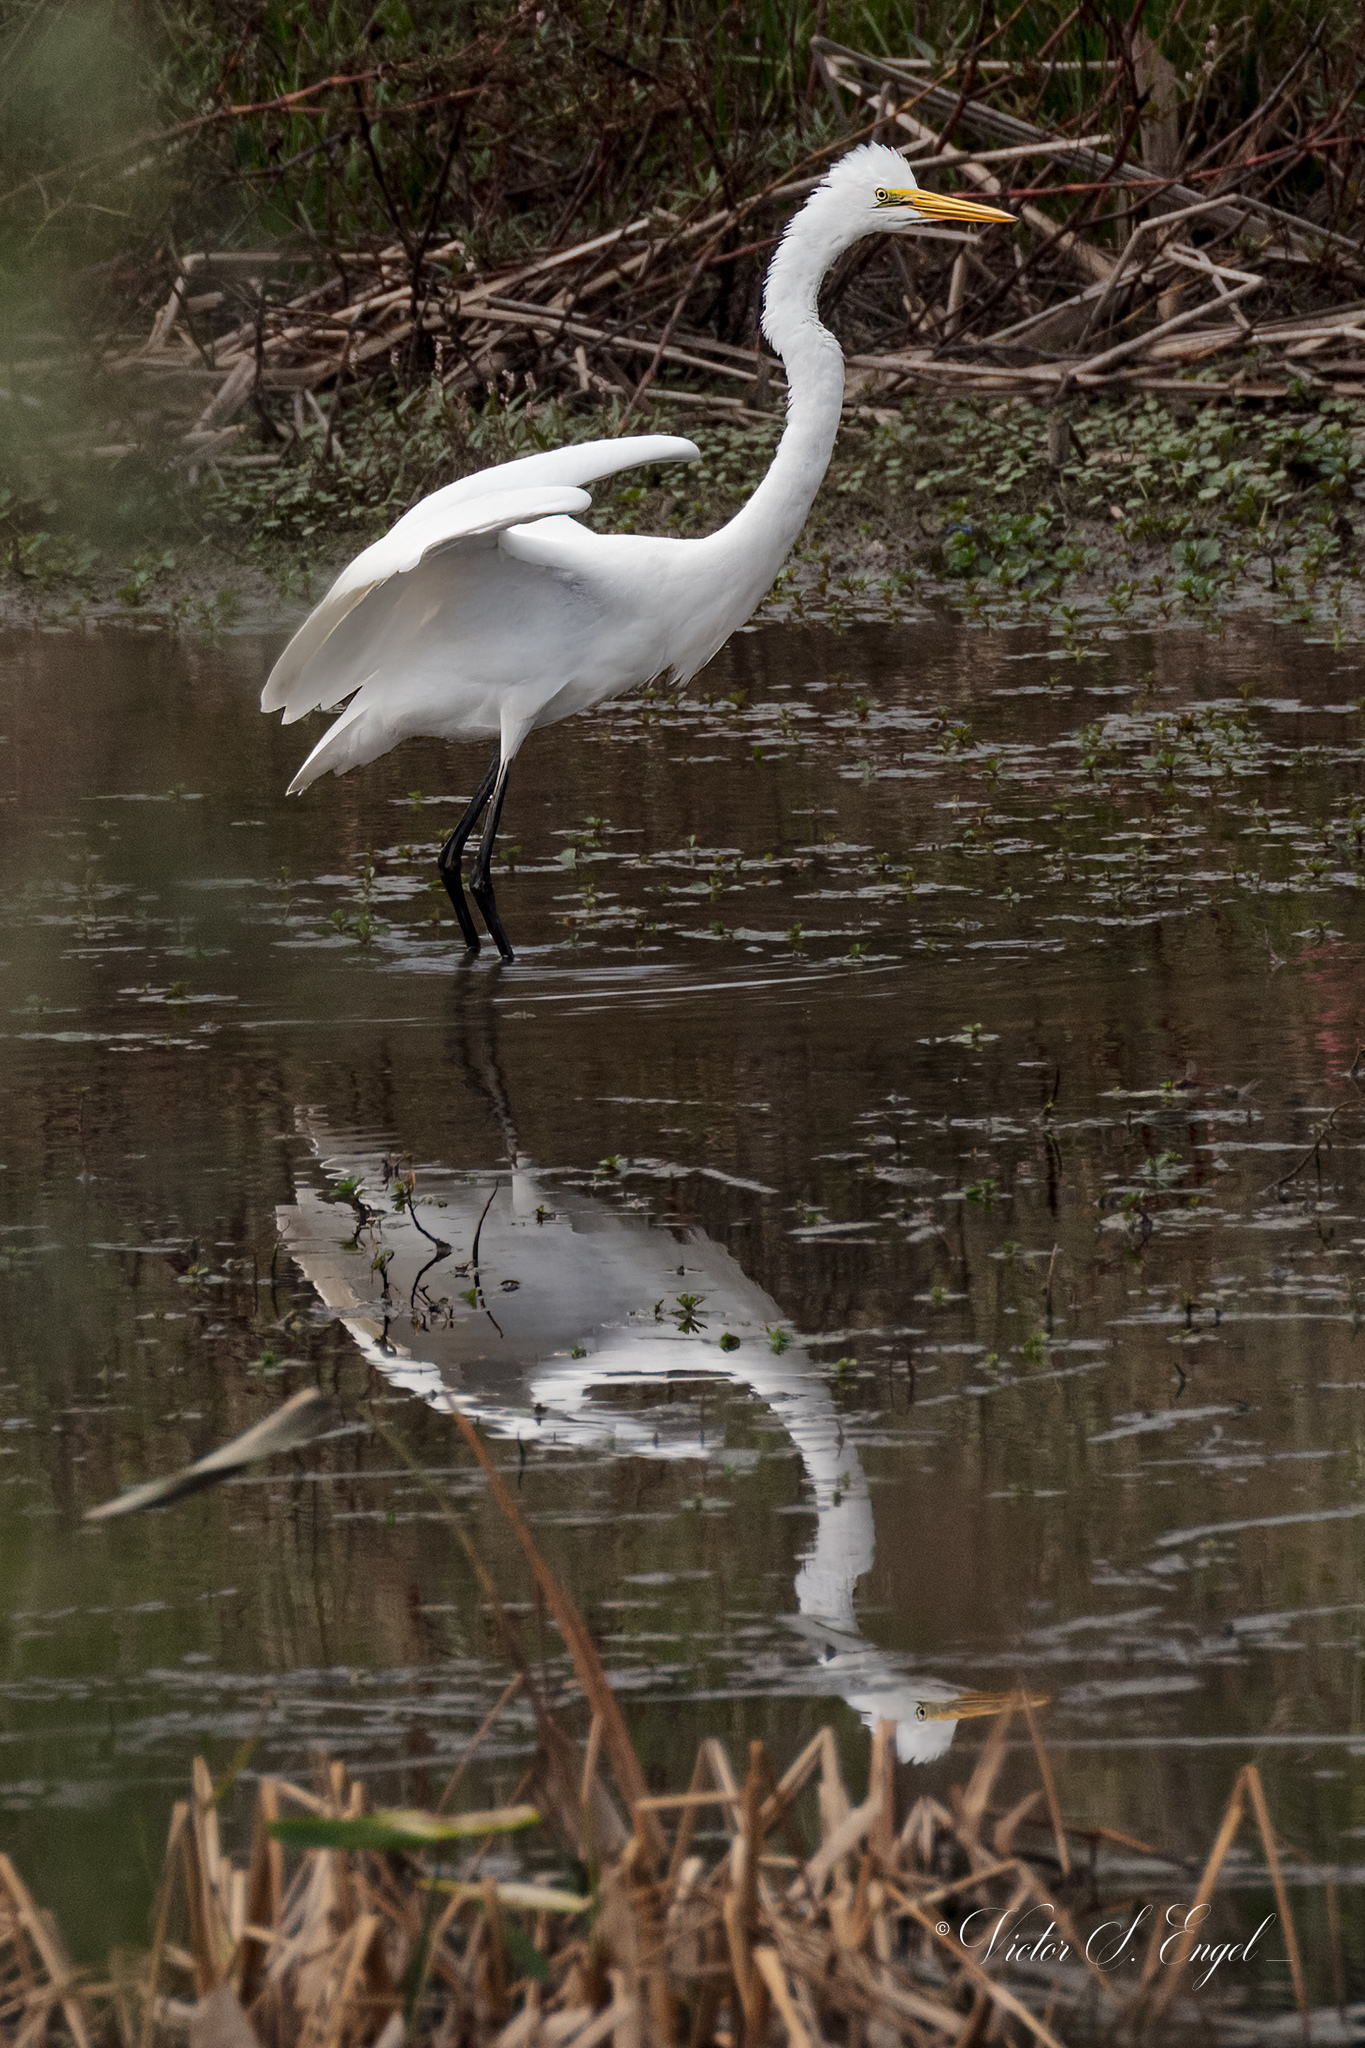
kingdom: Animalia
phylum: Chordata
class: Aves
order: Pelecaniformes
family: Ardeidae
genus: Ardea
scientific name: Ardea alba
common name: Great egret
